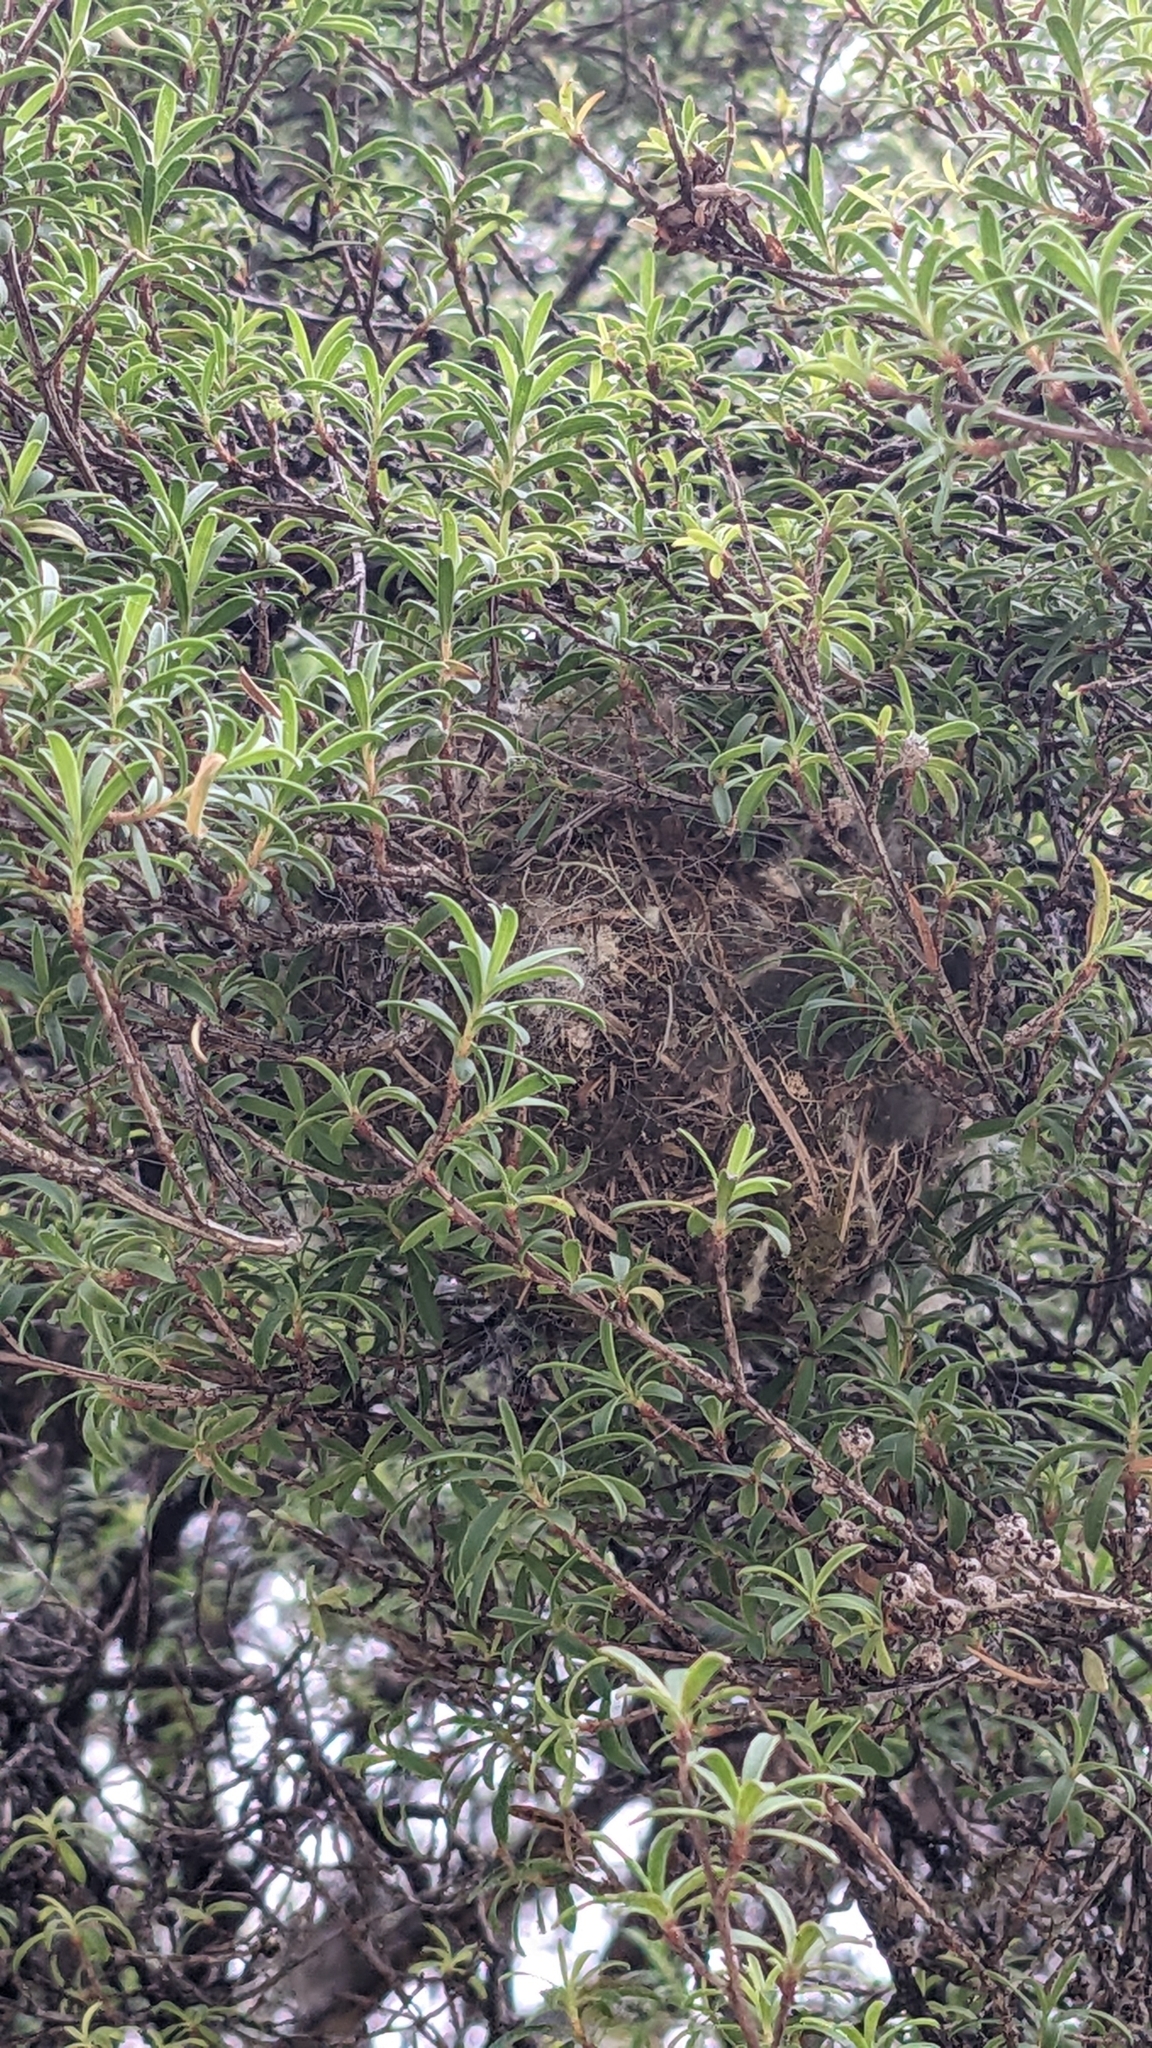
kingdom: Animalia
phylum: Chordata
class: Aves
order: Passeriformes
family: Zosteropidae
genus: Zosterops
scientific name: Zosterops lateralis
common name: Silvereye
